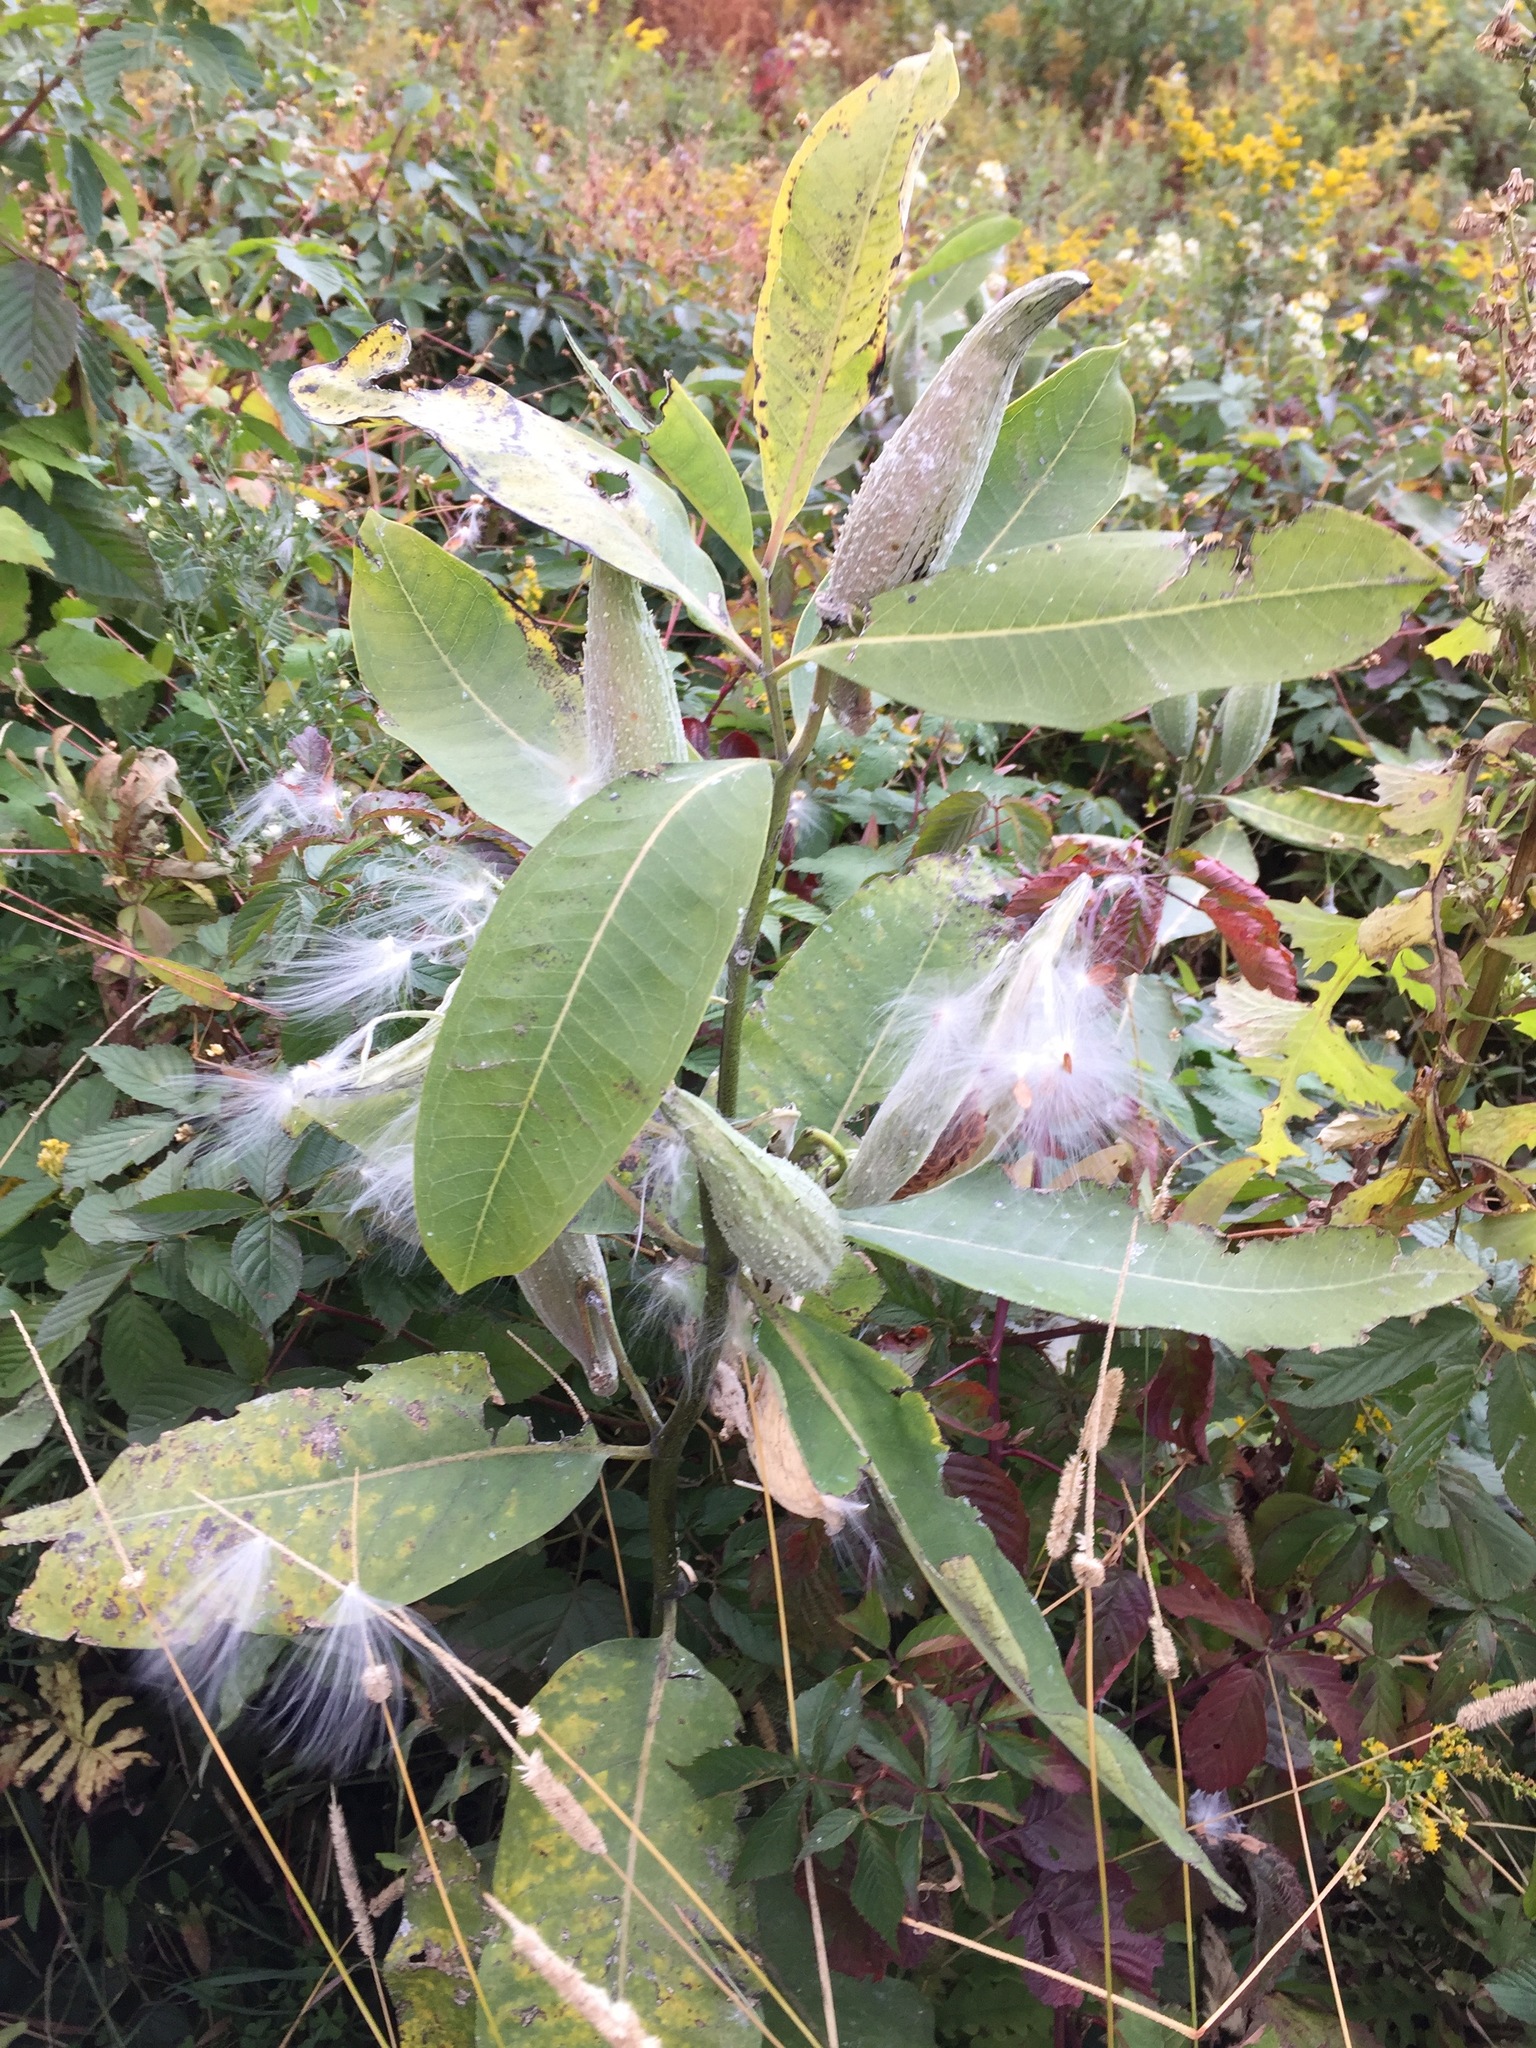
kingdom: Plantae
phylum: Tracheophyta
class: Magnoliopsida
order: Gentianales
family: Apocynaceae
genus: Asclepias
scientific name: Asclepias syriaca
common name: Common milkweed
